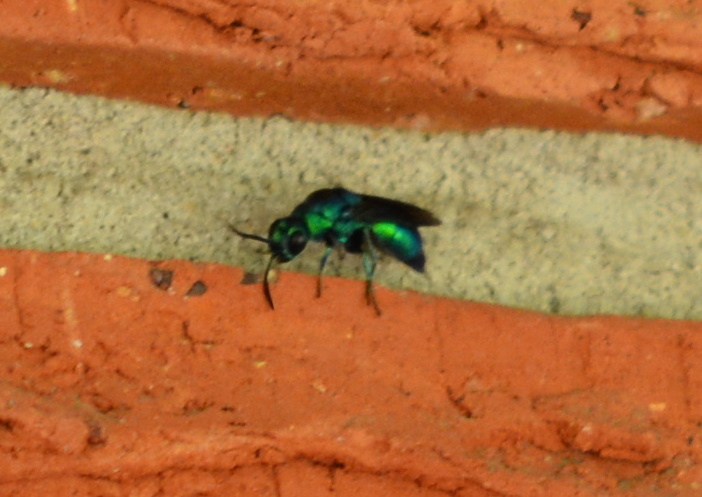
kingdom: Animalia
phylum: Arthropoda
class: Insecta
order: Hymenoptera
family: Chrysididae
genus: Chrysis
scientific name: Chrysis angolensis
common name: Cuckoo wasp
